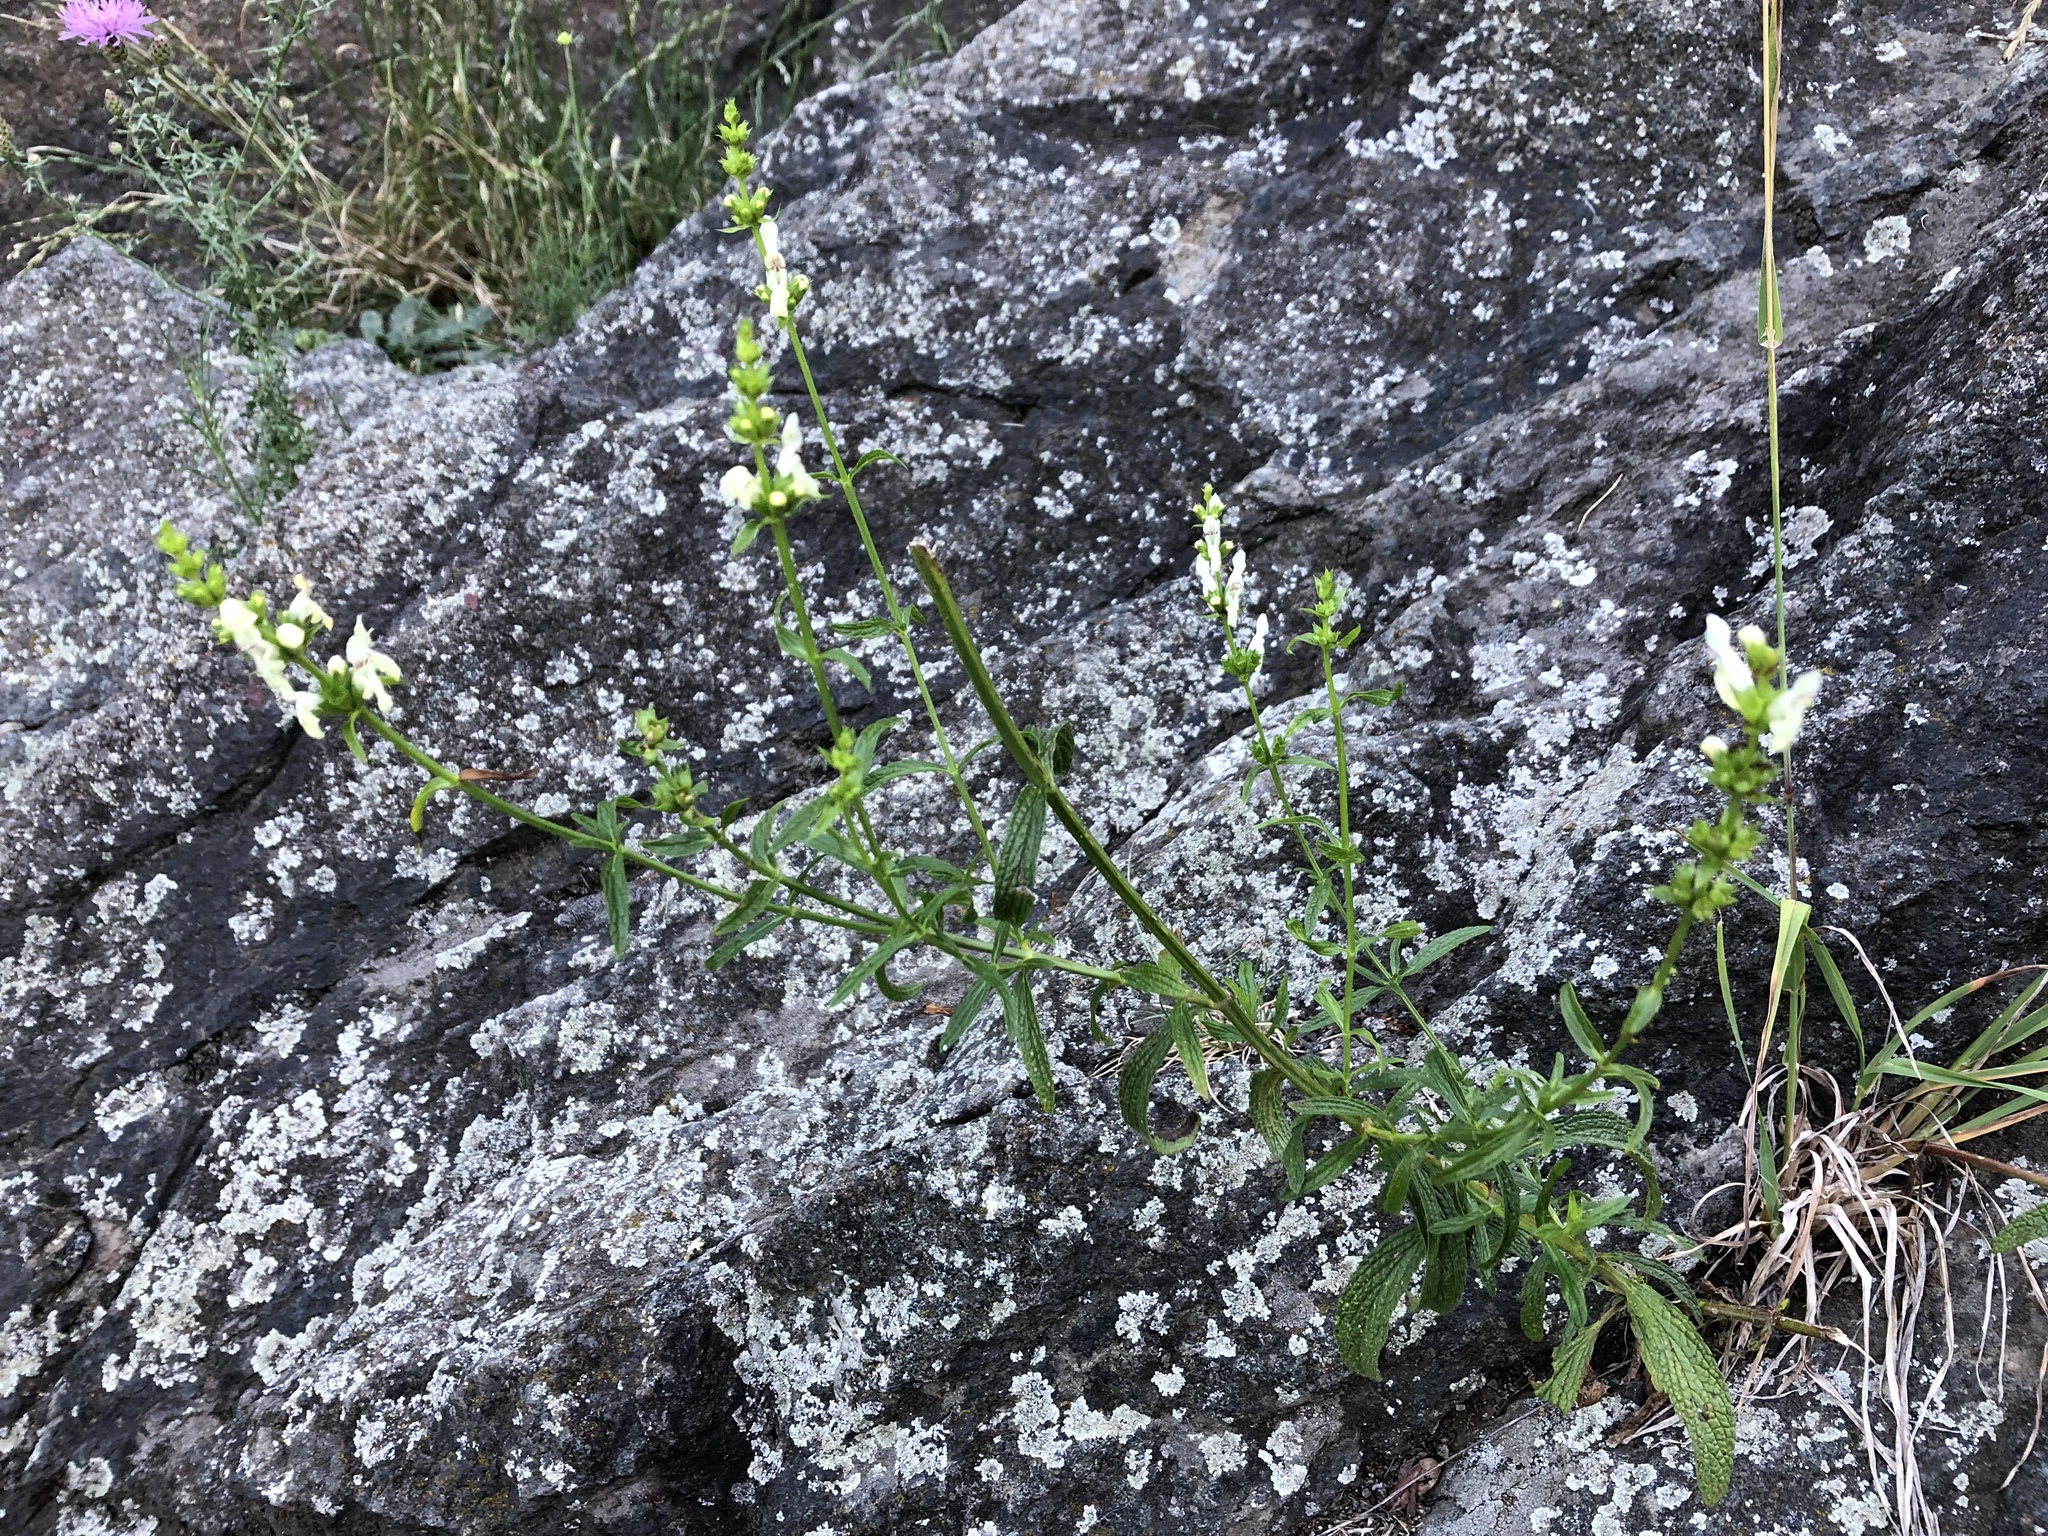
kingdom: Plantae
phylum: Tracheophyta
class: Magnoliopsida
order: Lamiales
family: Lamiaceae
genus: Stachys
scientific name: Stachys recta
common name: Perennial yellow-woundwort
